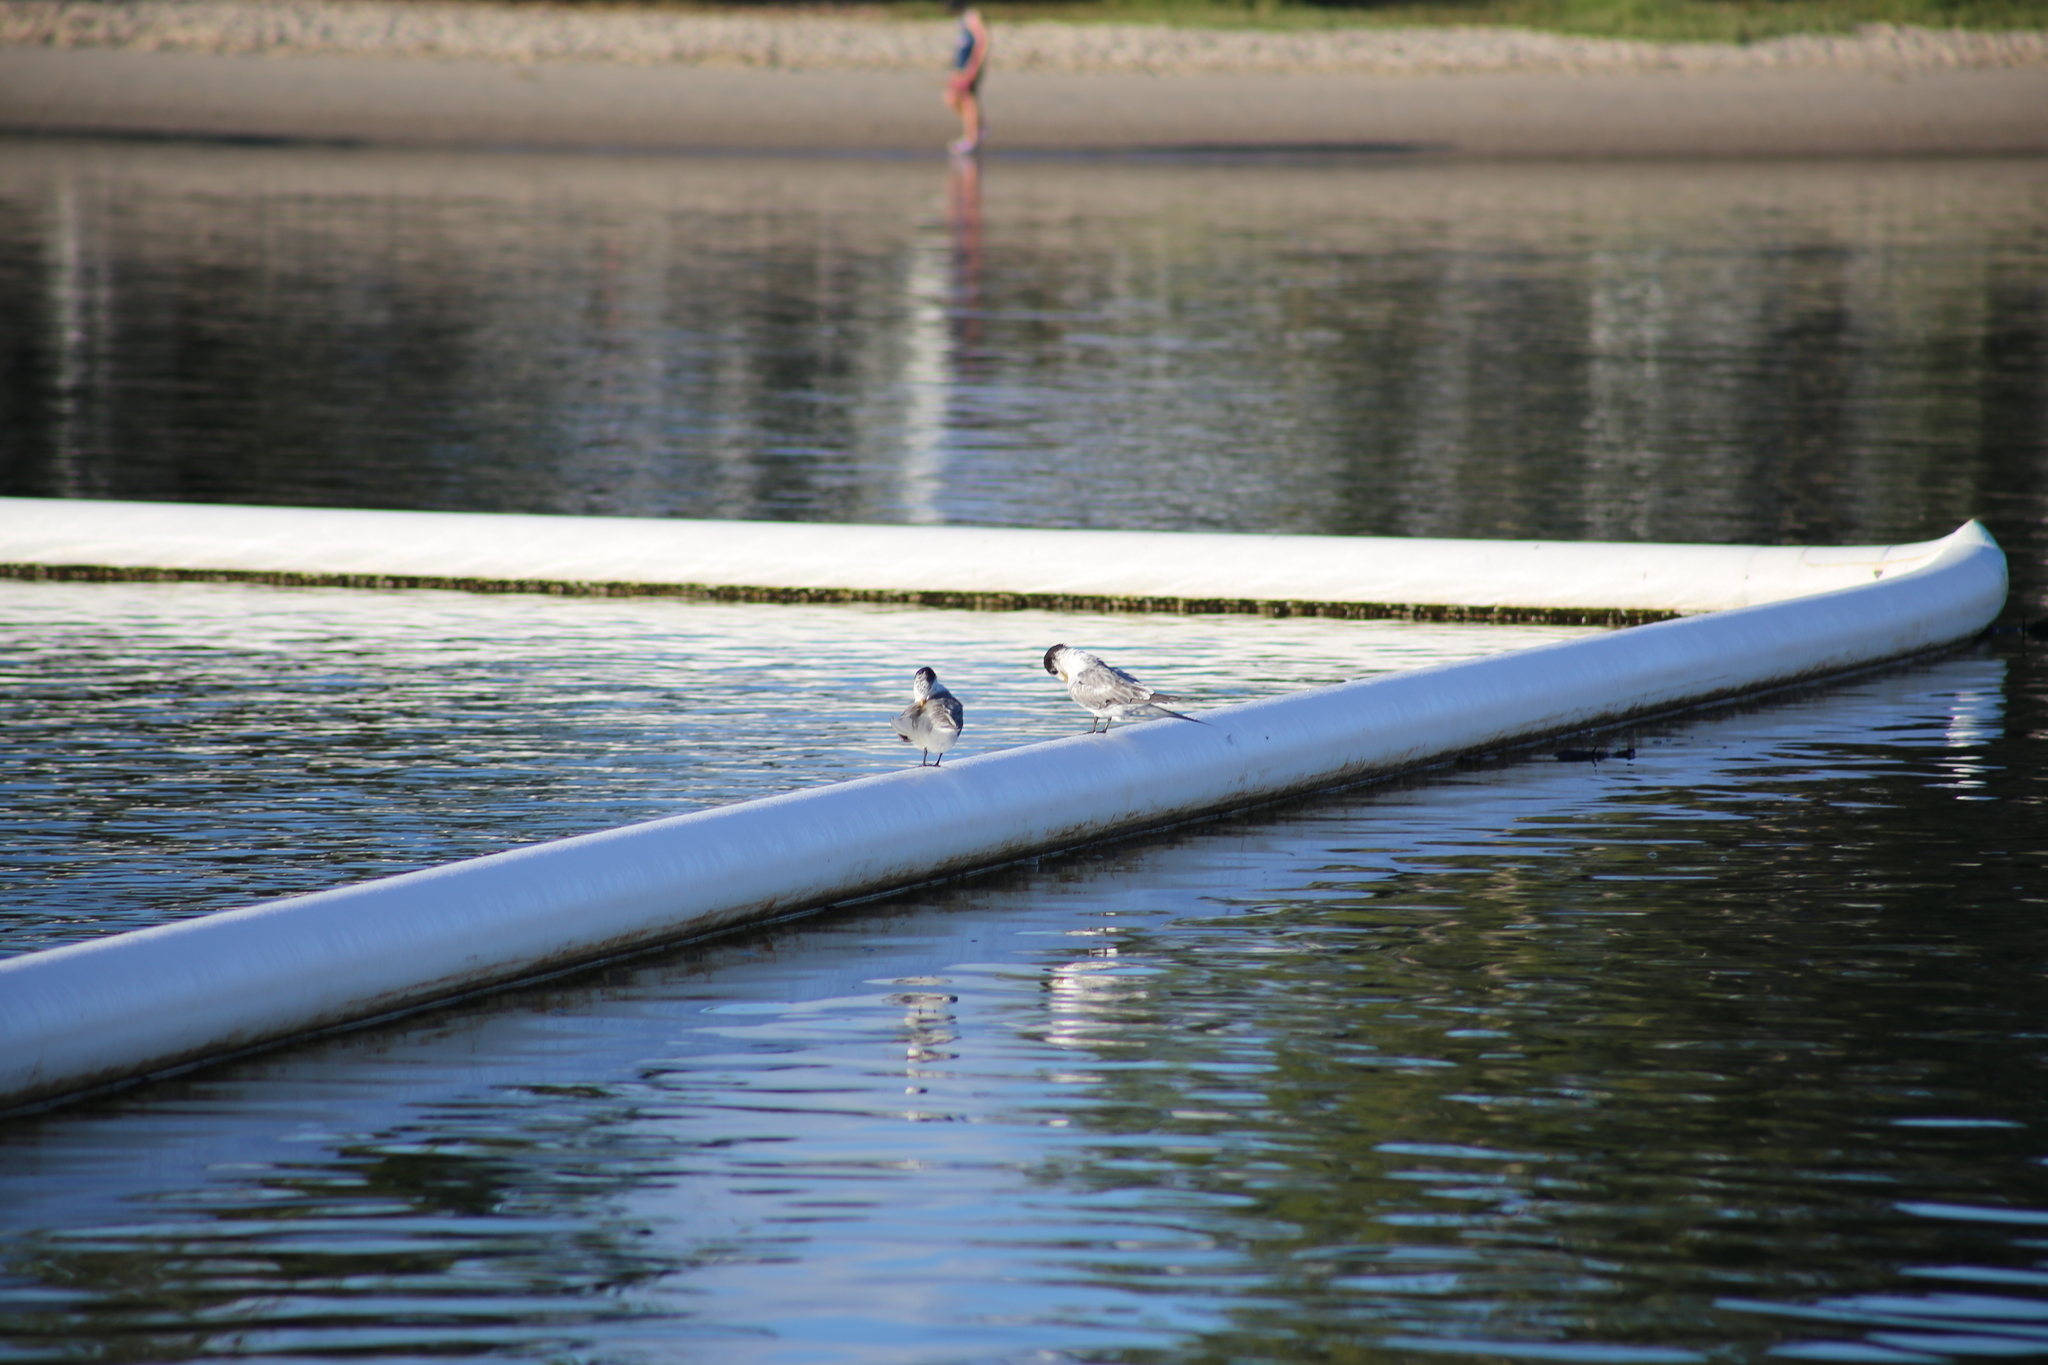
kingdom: Animalia
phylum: Chordata
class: Aves
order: Charadriiformes
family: Laridae
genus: Thalasseus
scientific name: Thalasseus bergii
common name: Greater crested tern
